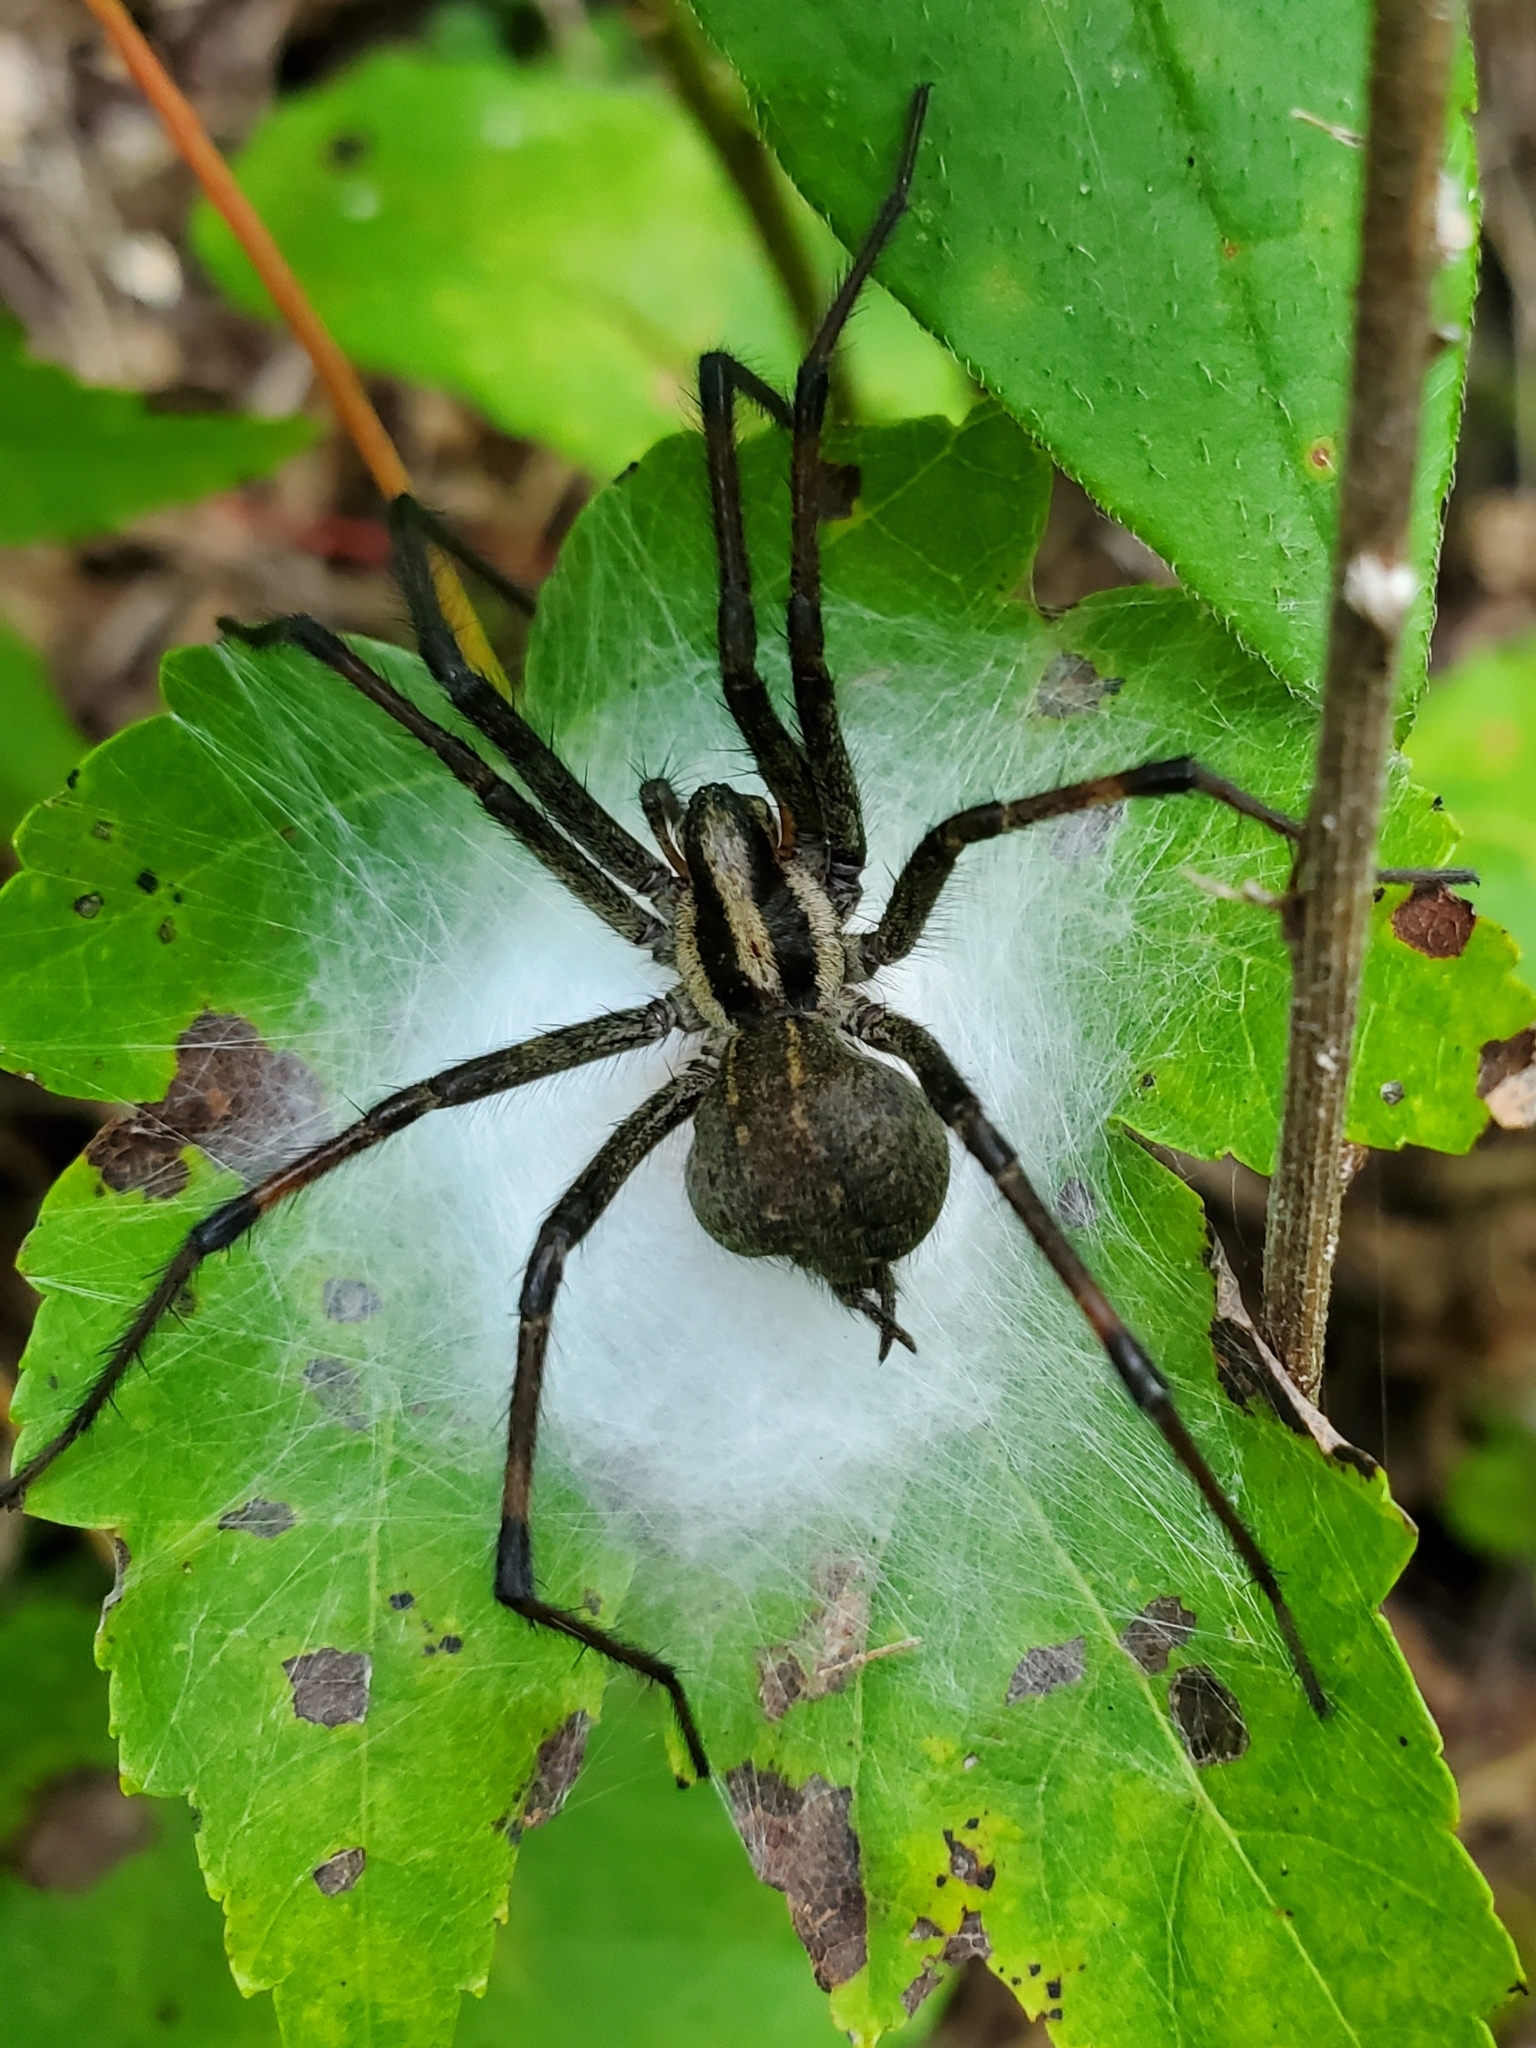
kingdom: Animalia
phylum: Arthropoda
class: Arachnida
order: Araneae
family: Agelenidae
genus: Agelenopsis
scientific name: Agelenopsis
